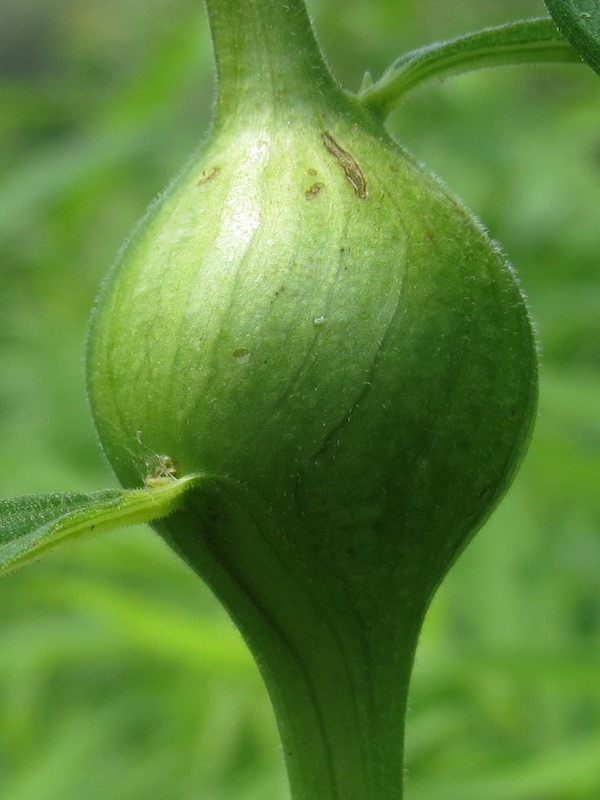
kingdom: Animalia
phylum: Arthropoda
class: Insecta
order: Diptera
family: Tephritidae
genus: Eurosta
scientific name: Eurosta solidaginis
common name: Goldenrod gall fly
